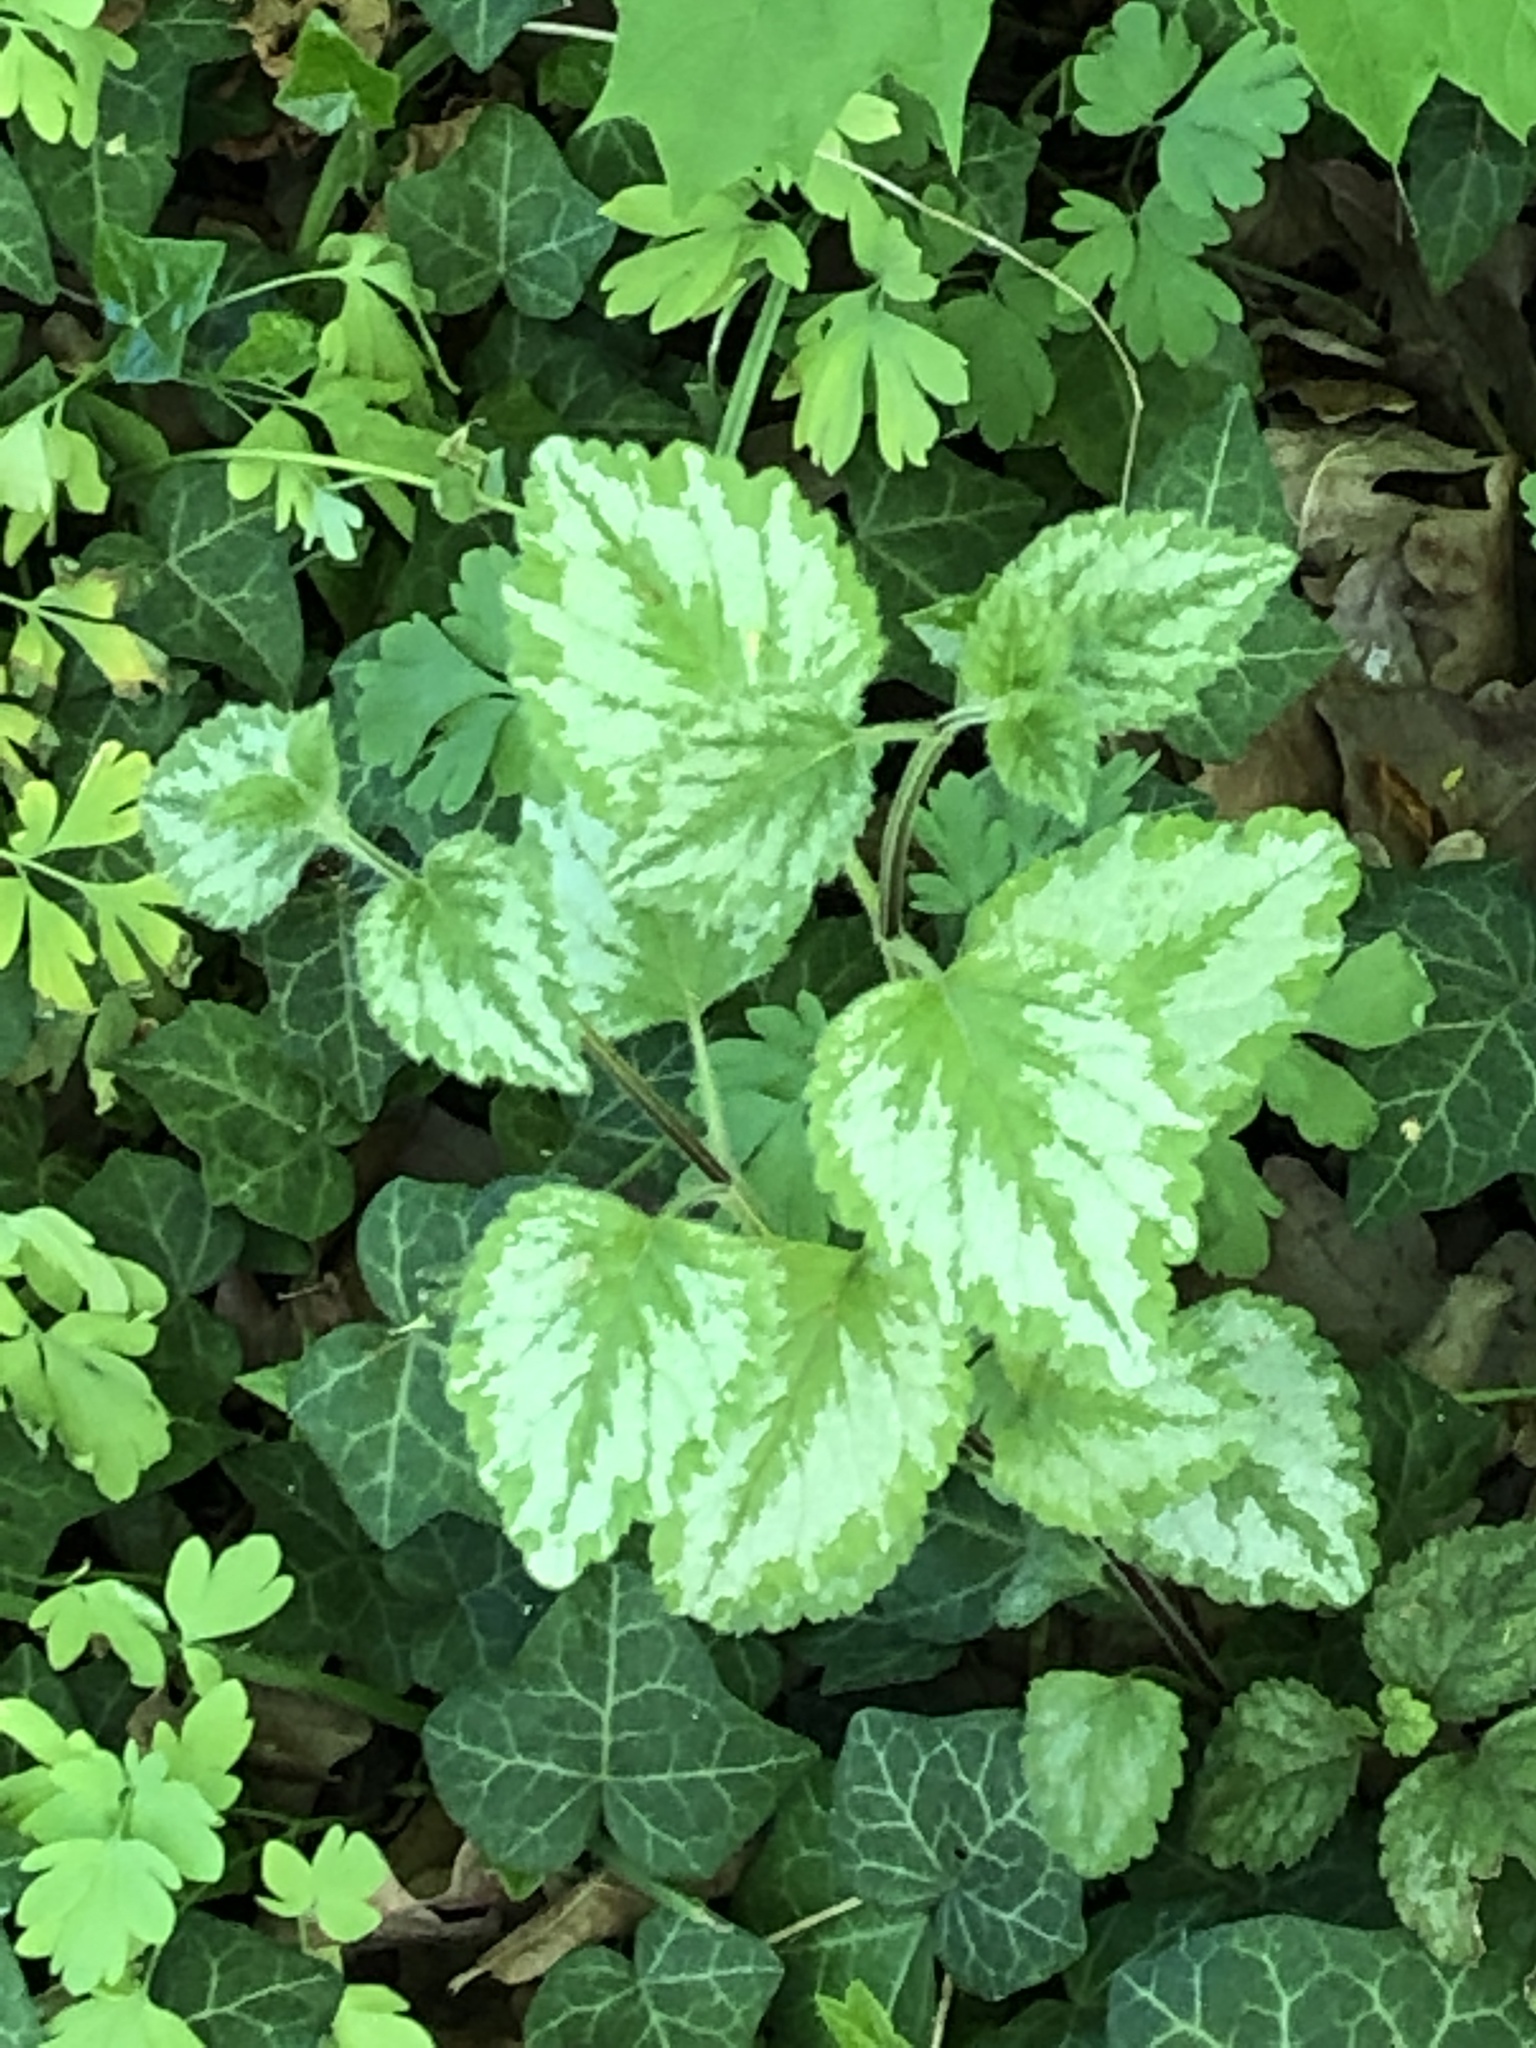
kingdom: Plantae
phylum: Tracheophyta
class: Magnoliopsida
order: Lamiales
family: Lamiaceae
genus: Lamium
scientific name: Lamium galeobdolon
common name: Yellow archangel
